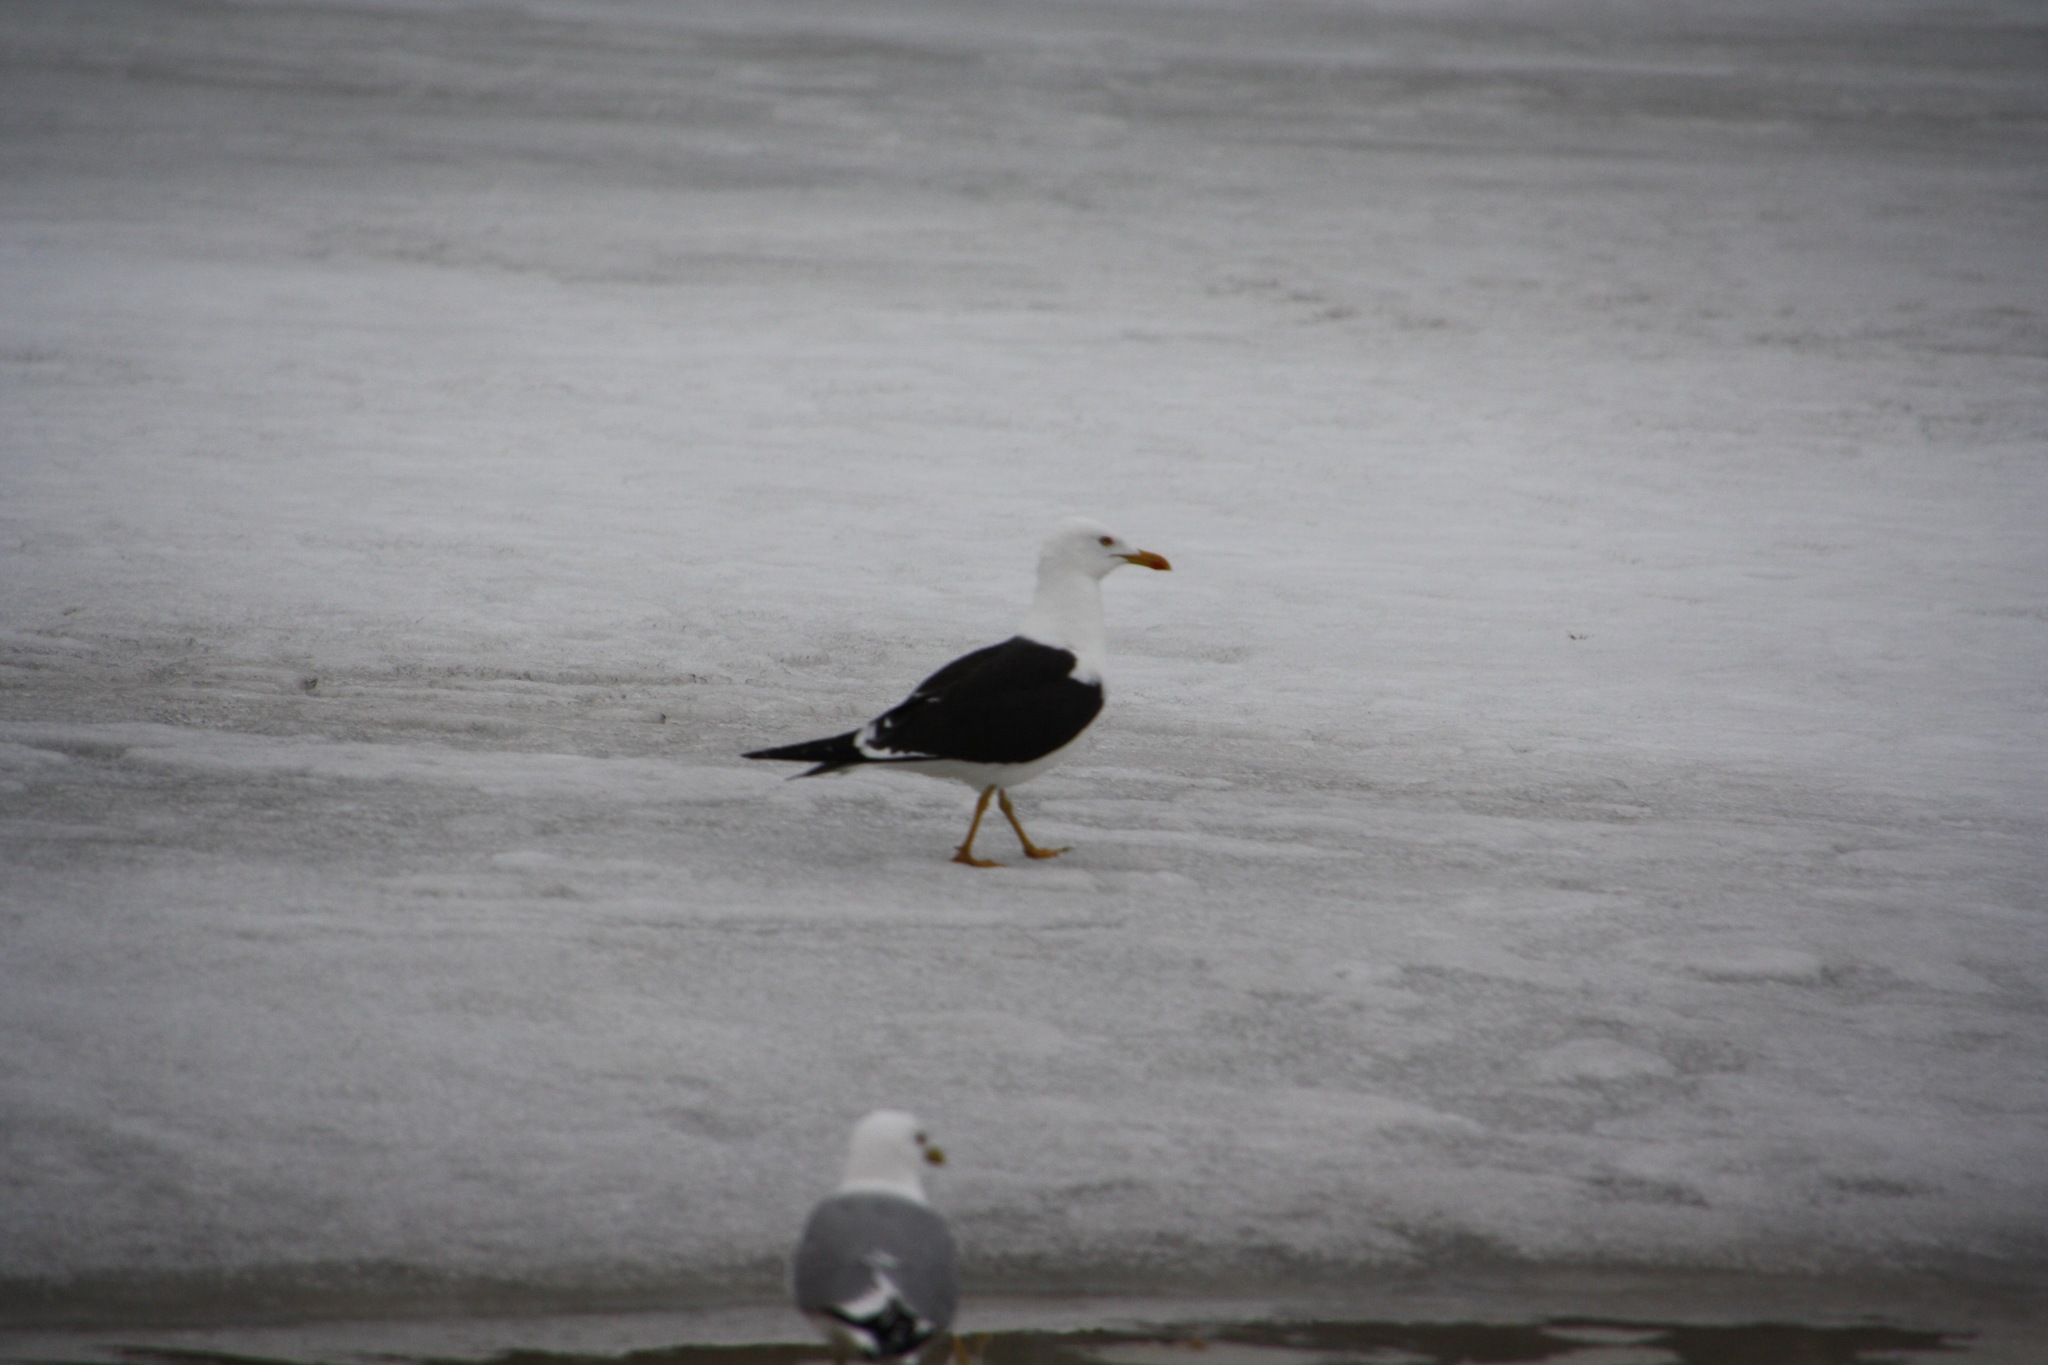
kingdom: Animalia
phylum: Chordata
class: Aves
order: Charadriiformes
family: Laridae
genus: Larus
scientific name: Larus fuscus
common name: Lesser black-backed gull
